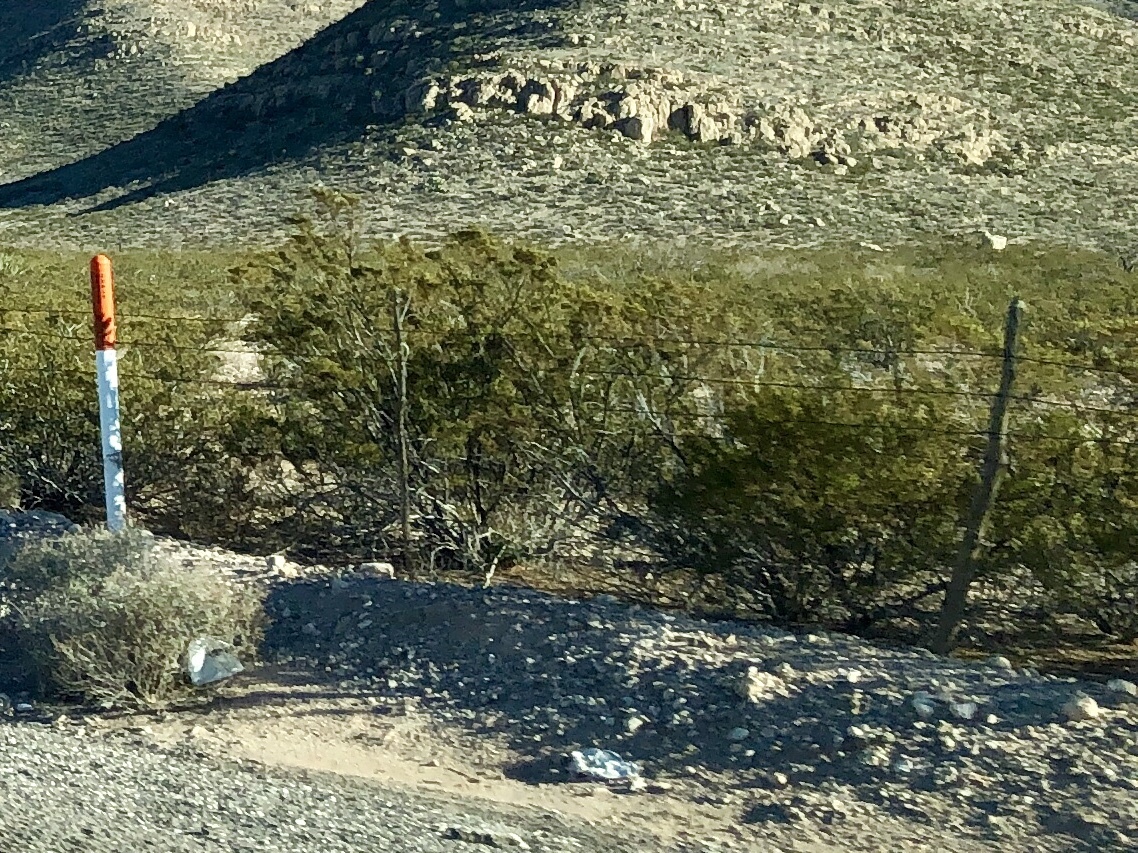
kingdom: Plantae
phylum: Tracheophyta
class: Magnoliopsida
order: Zygophyllales
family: Zygophyllaceae
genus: Larrea
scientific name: Larrea tridentata
